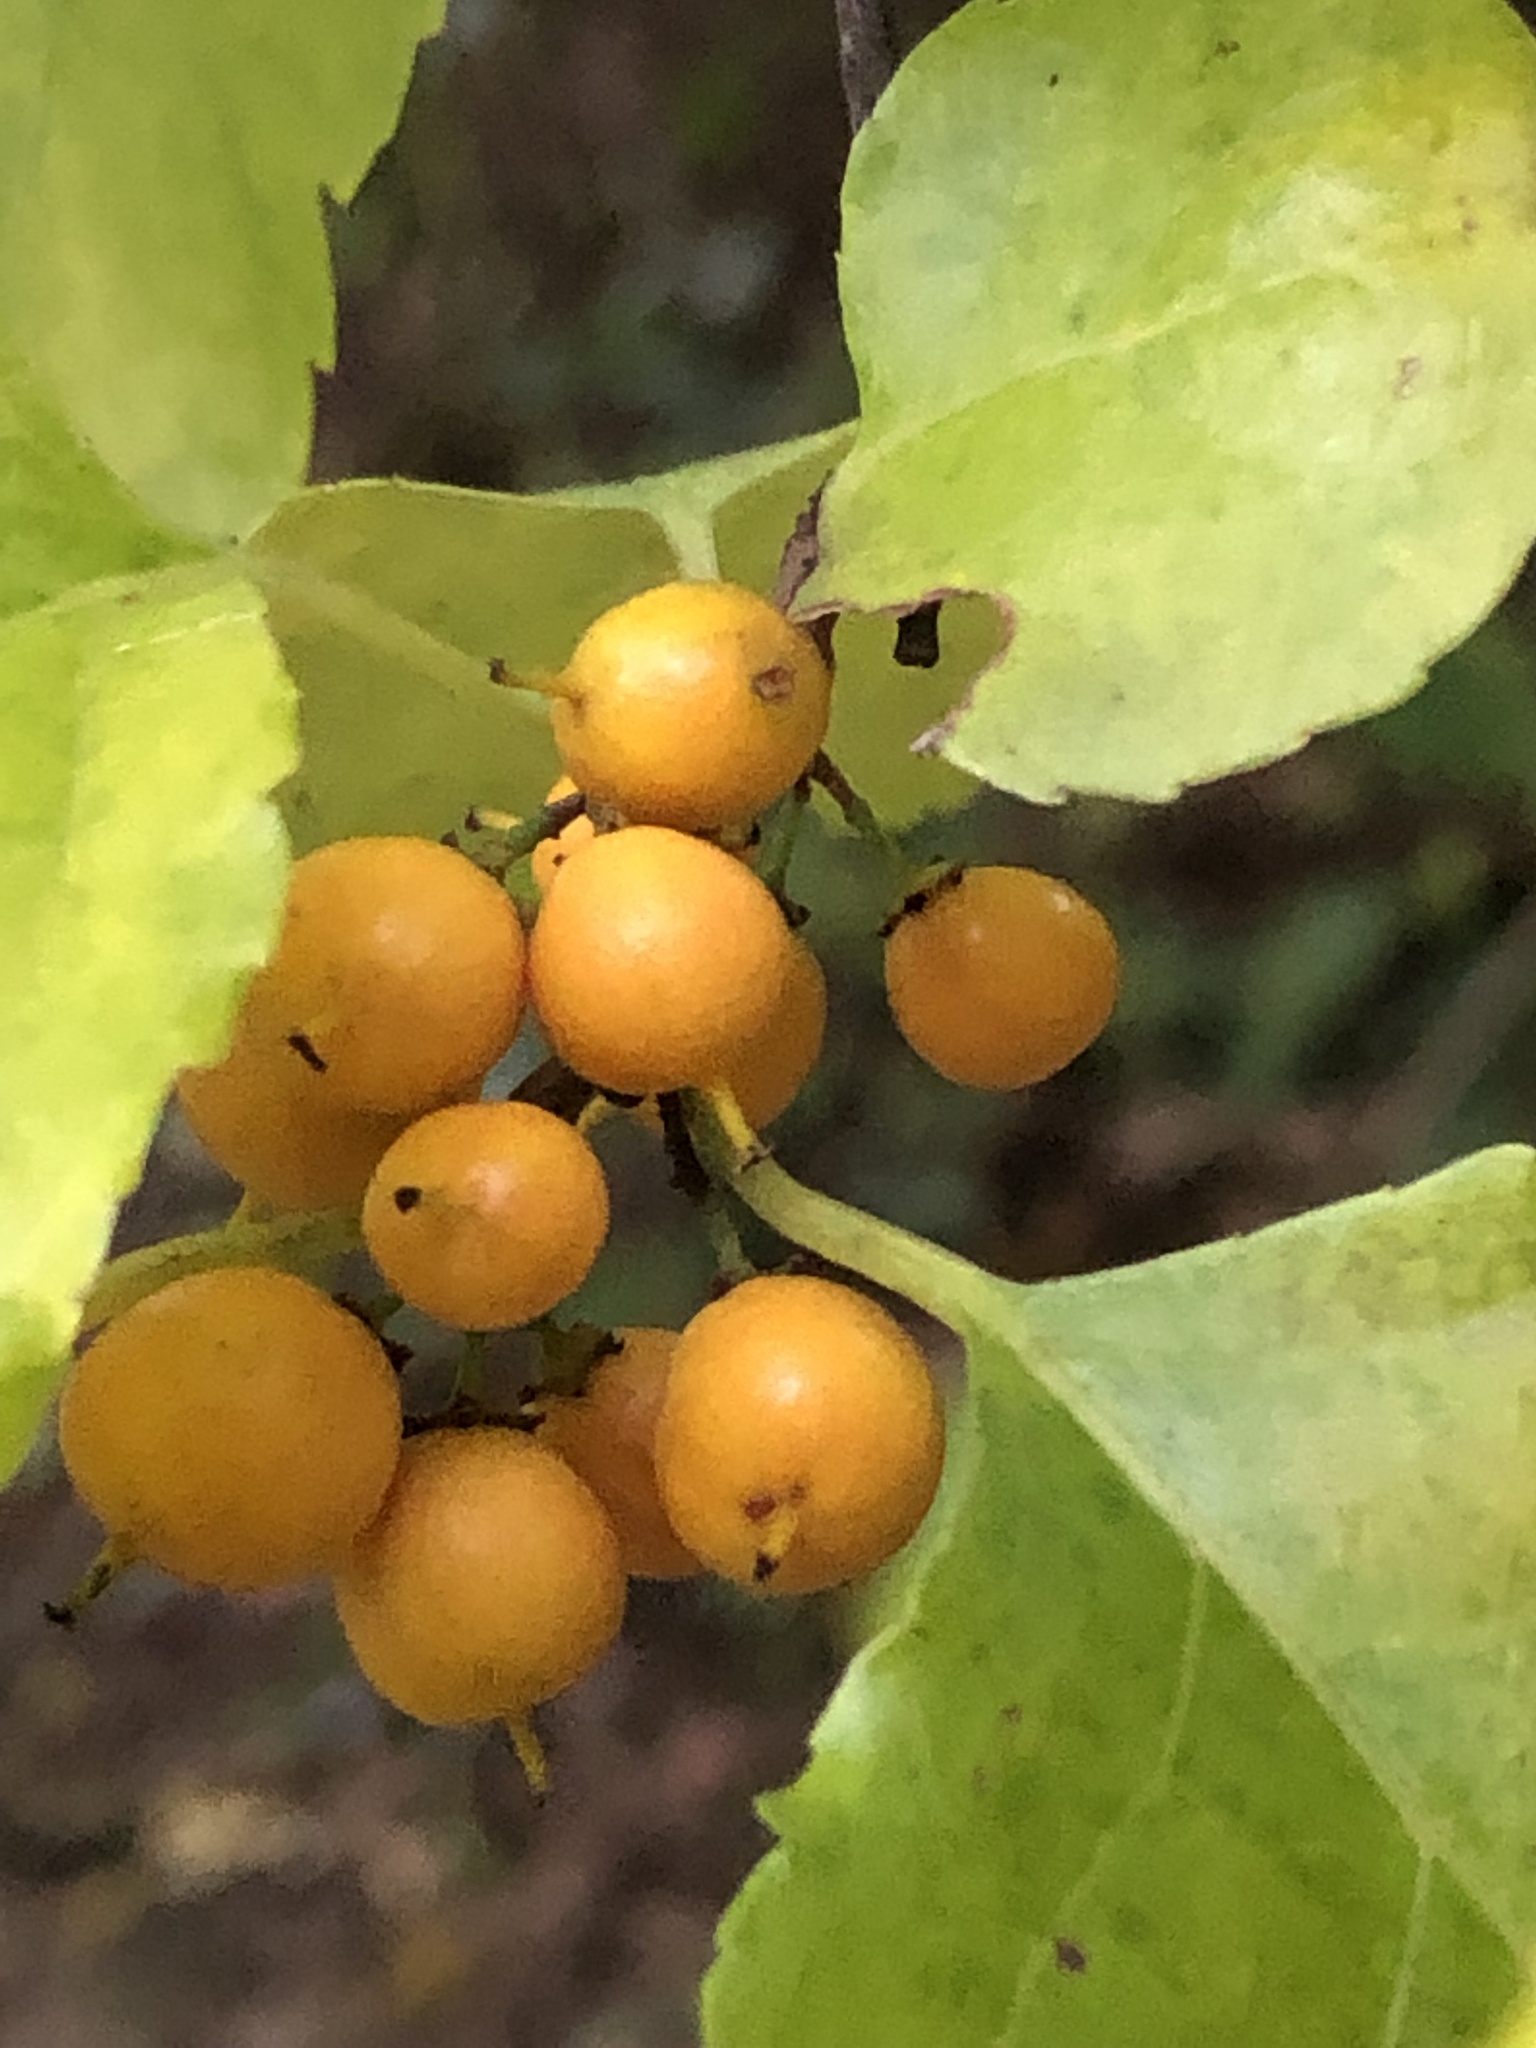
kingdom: Plantae
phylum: Tracheophyta
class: Magnoliopsida
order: Celastrales
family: Celastraceae
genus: Celastrus
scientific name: Celastrus orbiculatus
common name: Oriental bittersweet
